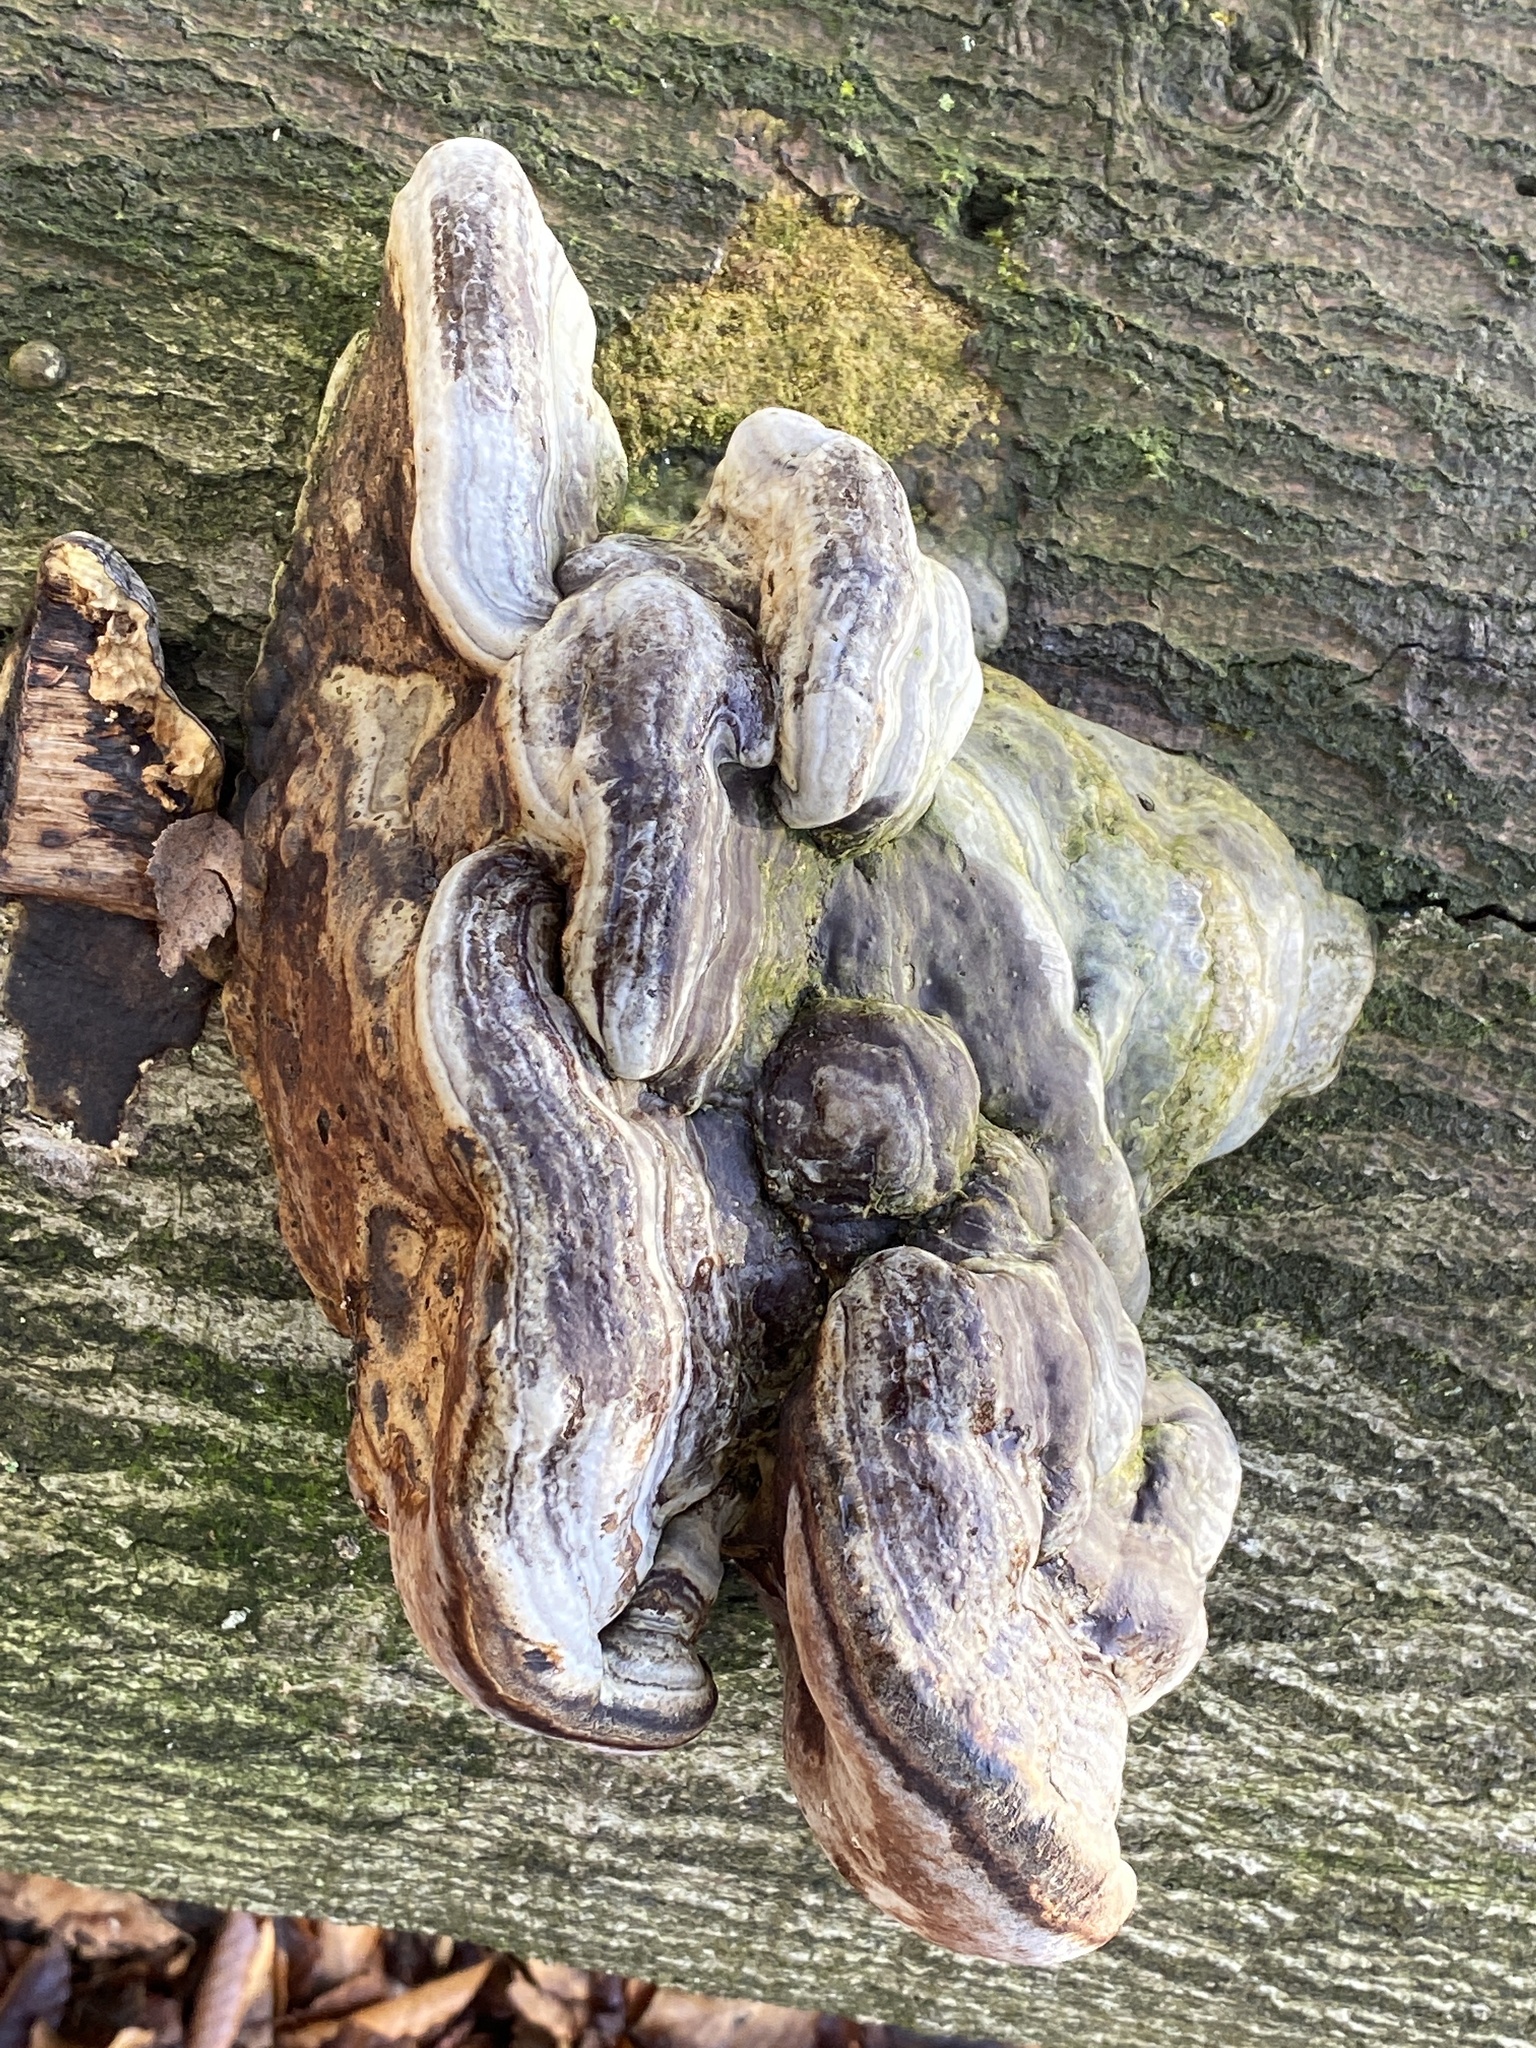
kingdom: Fungi
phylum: Basidiomycota
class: Agaricomycetes
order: Polyporales
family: Polyporaceae
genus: Fomes
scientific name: Fomes fomentarius
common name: Hoof fungus
